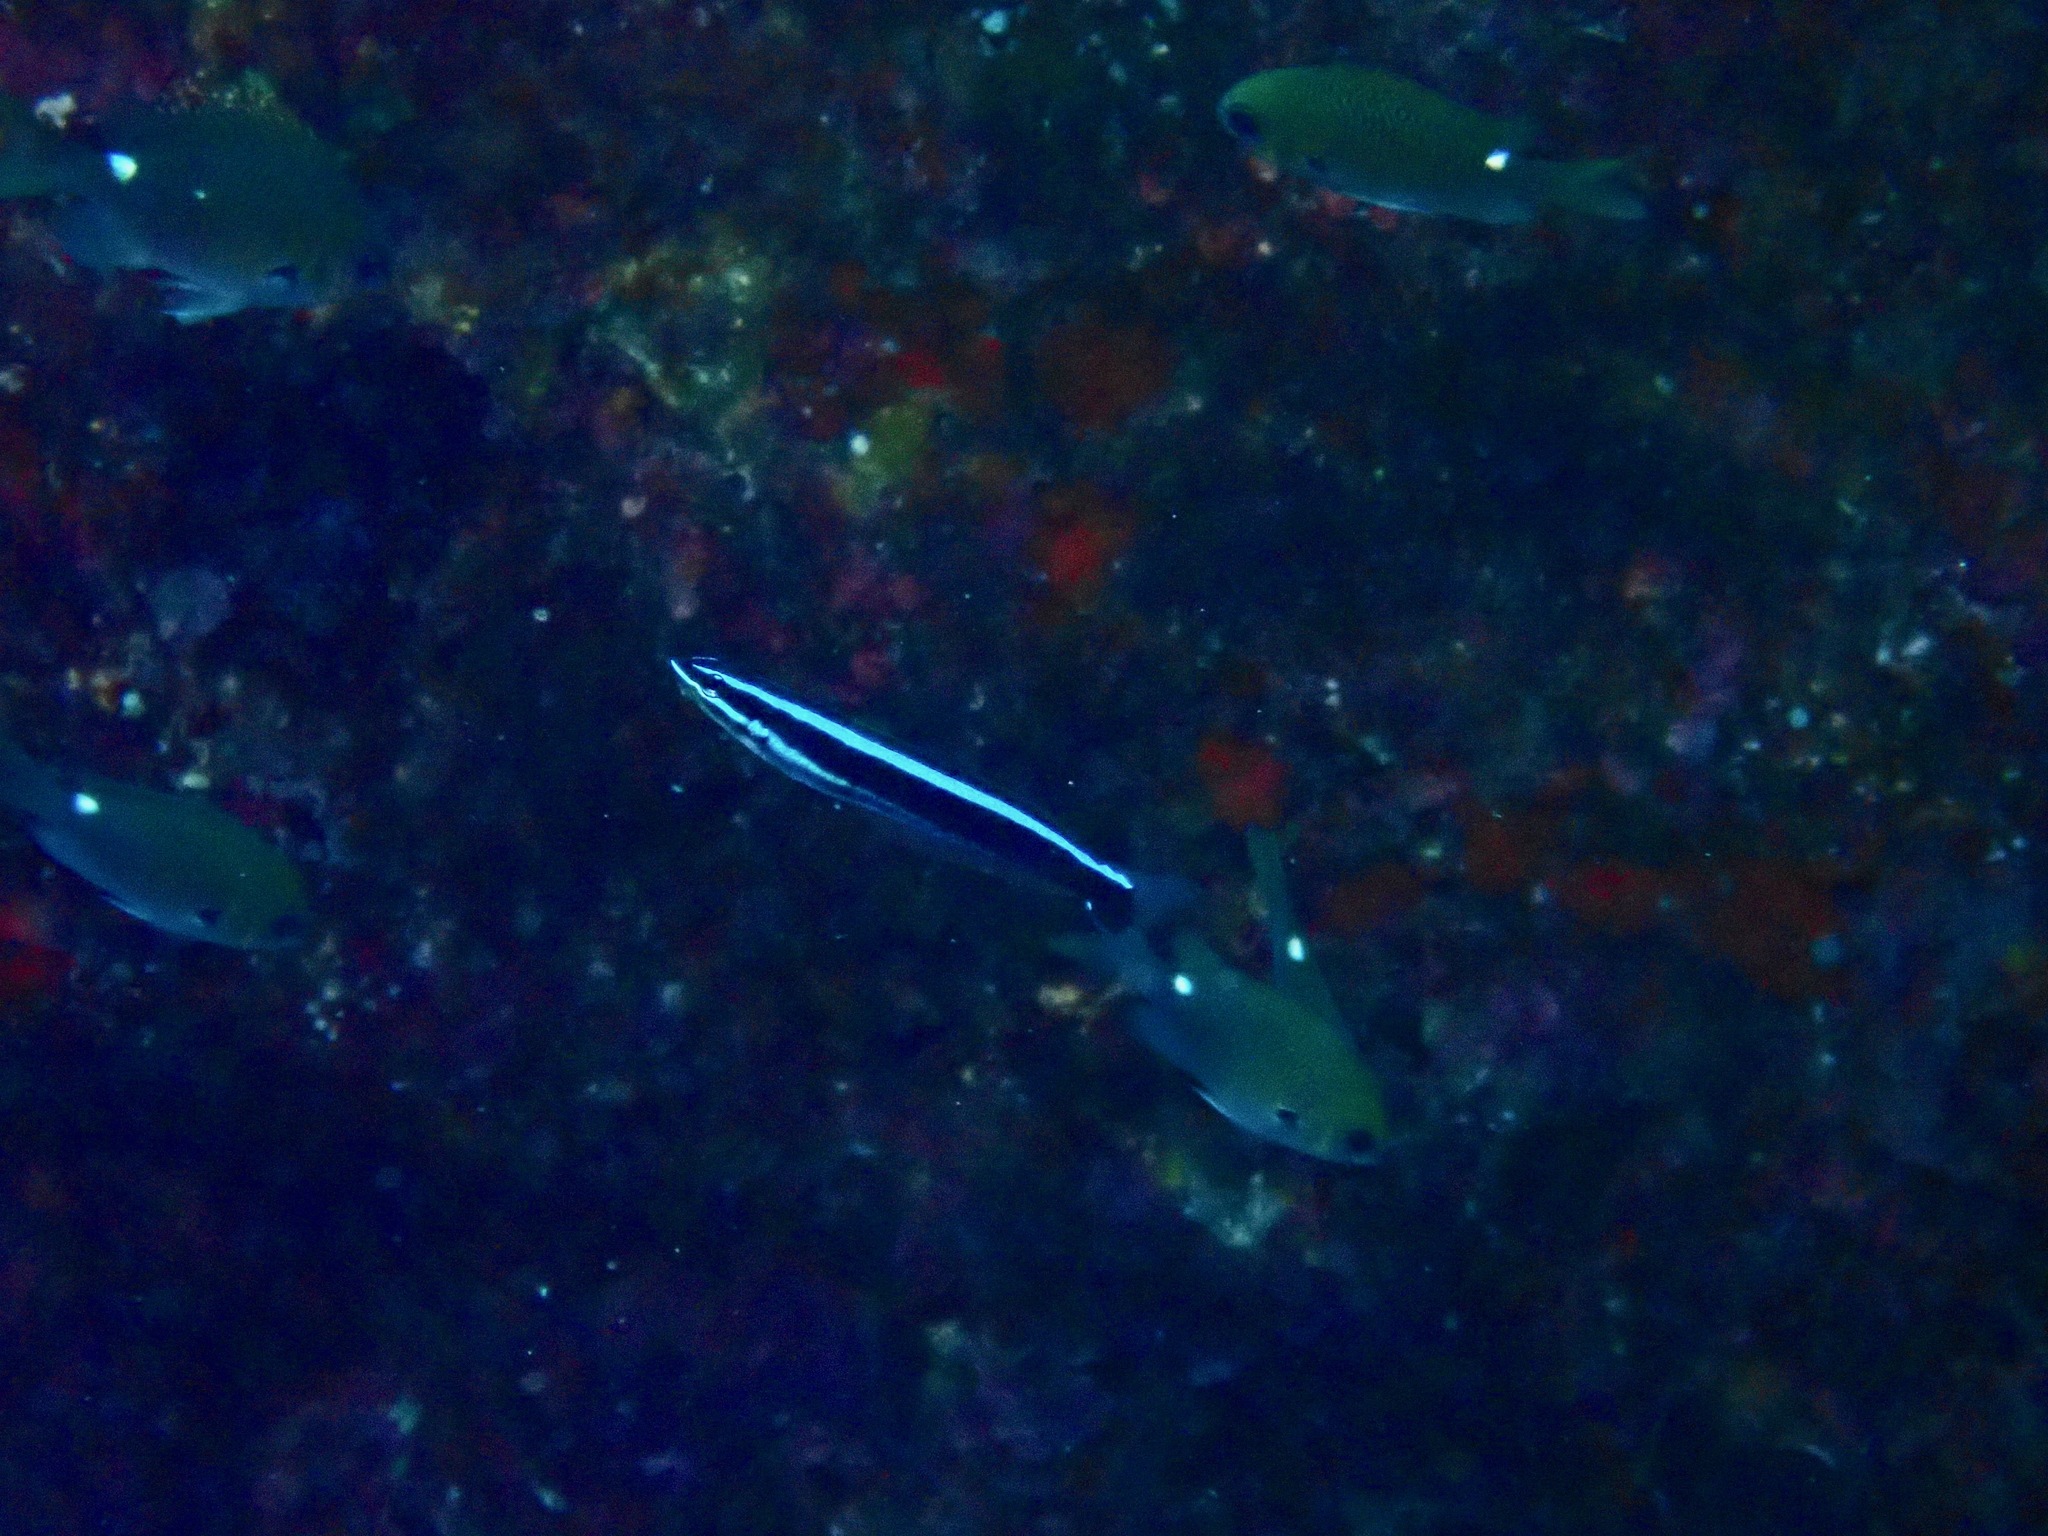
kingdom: Animalia
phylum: Chordata
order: Perciformes
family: Blenniidae
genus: Plagiotremus
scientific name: Plagiotremus rhinorhynchos
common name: Bluestriped fangblenny
